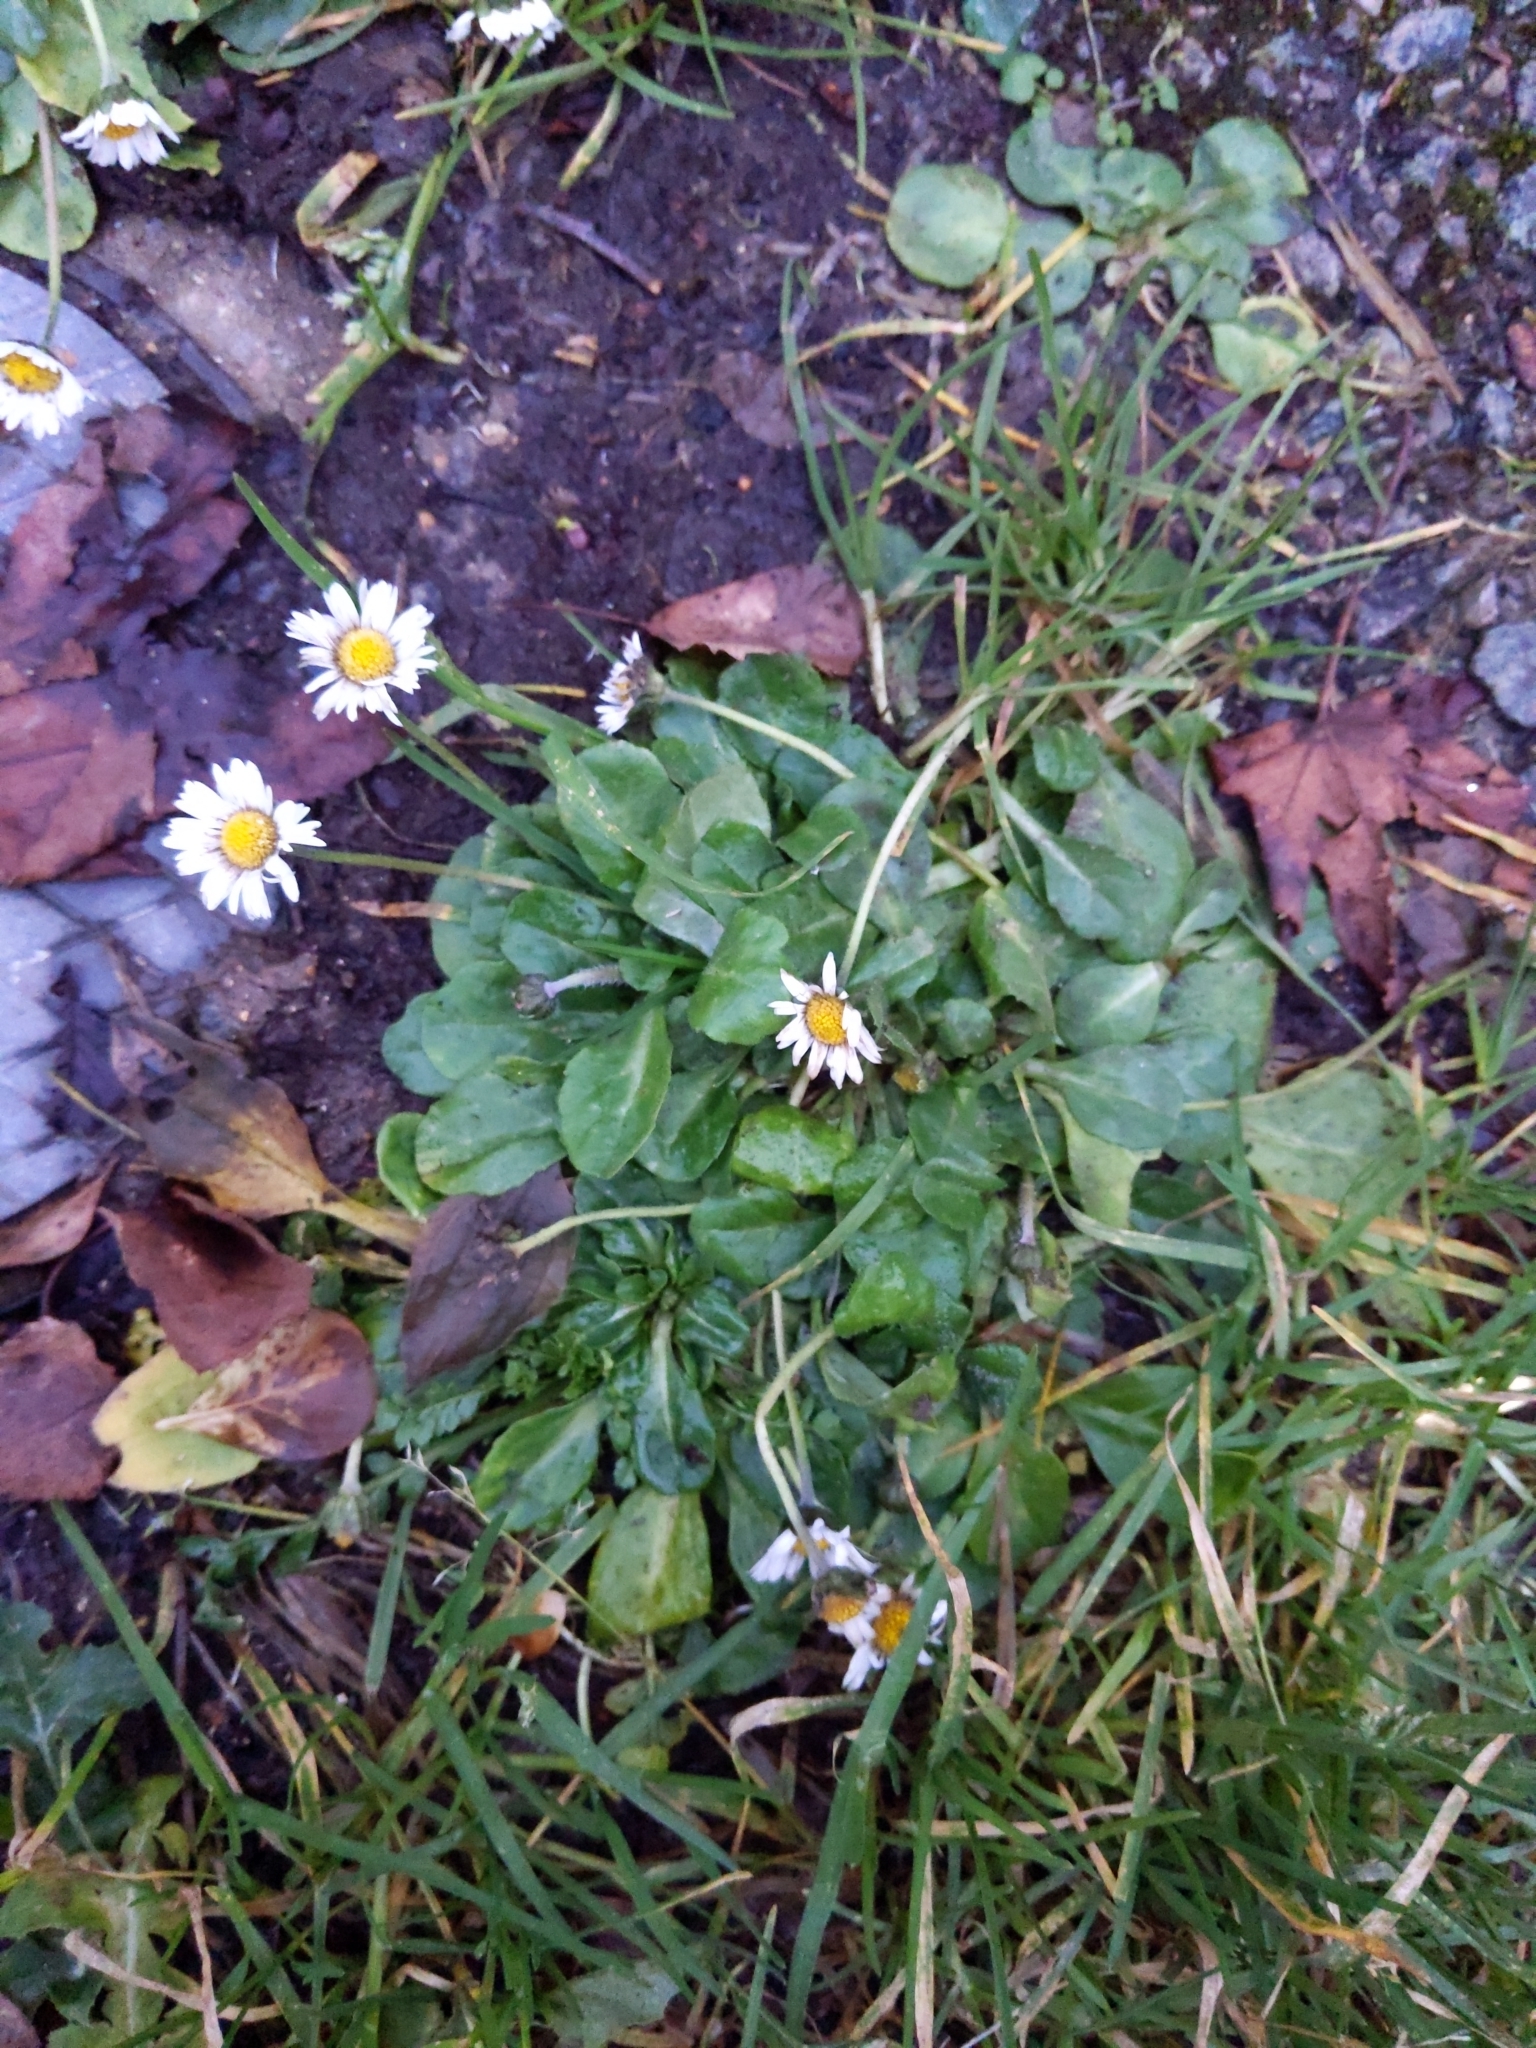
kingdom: Plantae
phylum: Tracheophyta
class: Magnoliopsida
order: Asterales
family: Asteraceae
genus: Bellis
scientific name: Bellis perennis
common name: Lawndaisy
